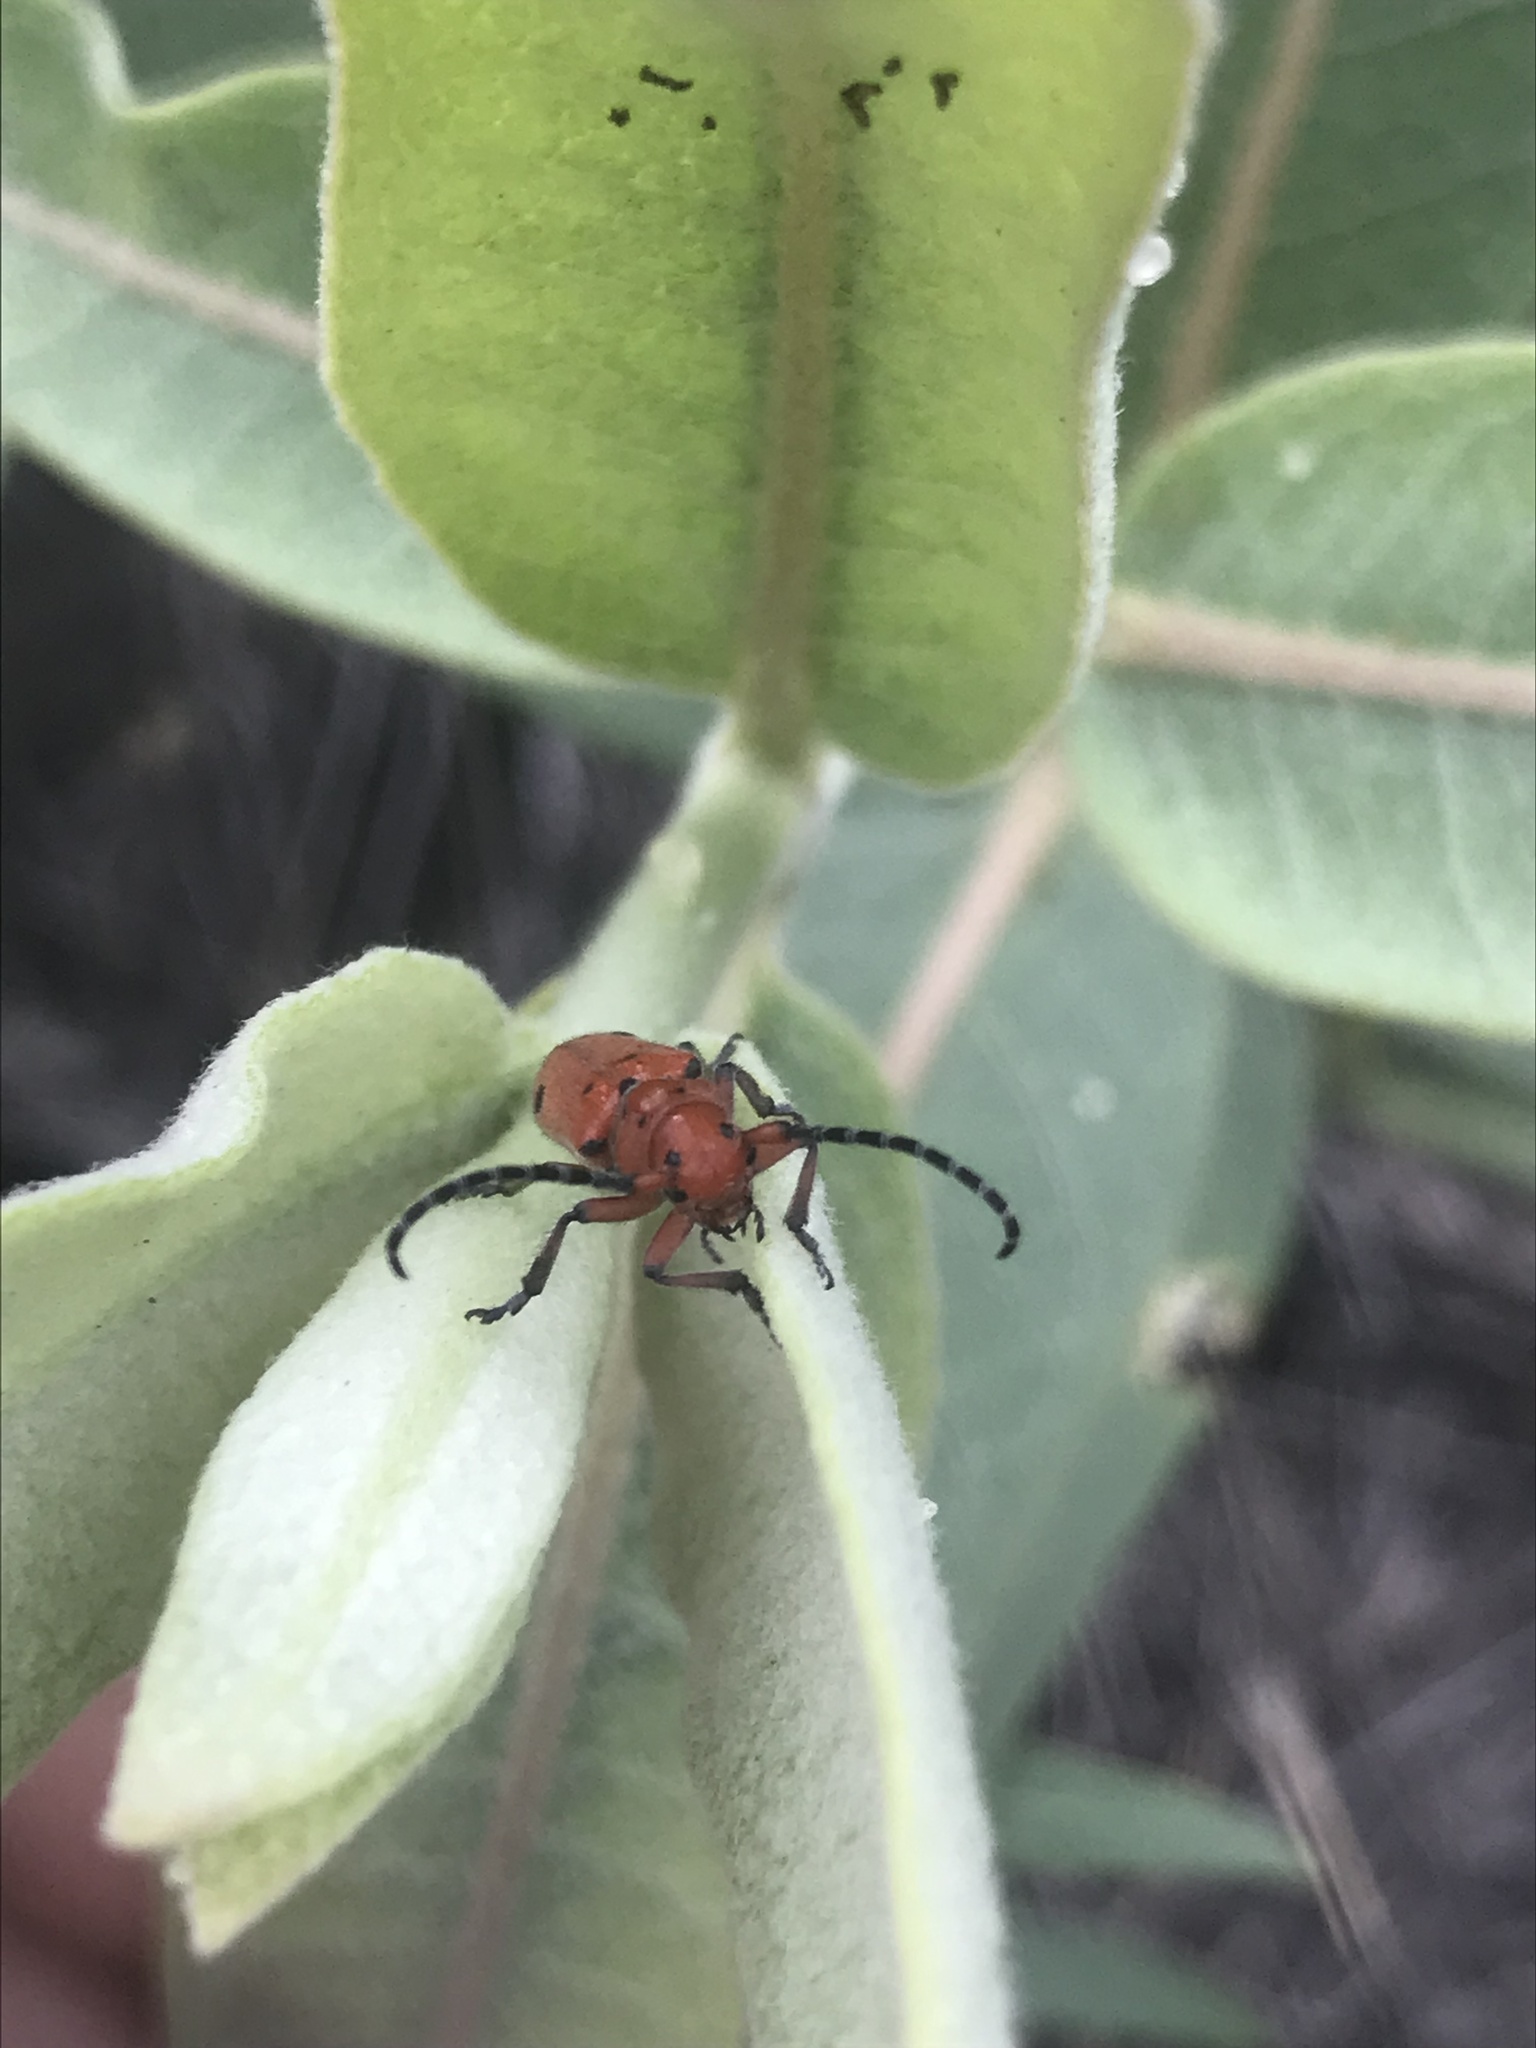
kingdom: Animalia
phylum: Arthropoda
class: Insecta
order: Coleoptera
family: Cerambycidae
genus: Tetraopes
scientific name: Tetraopes femoratus
